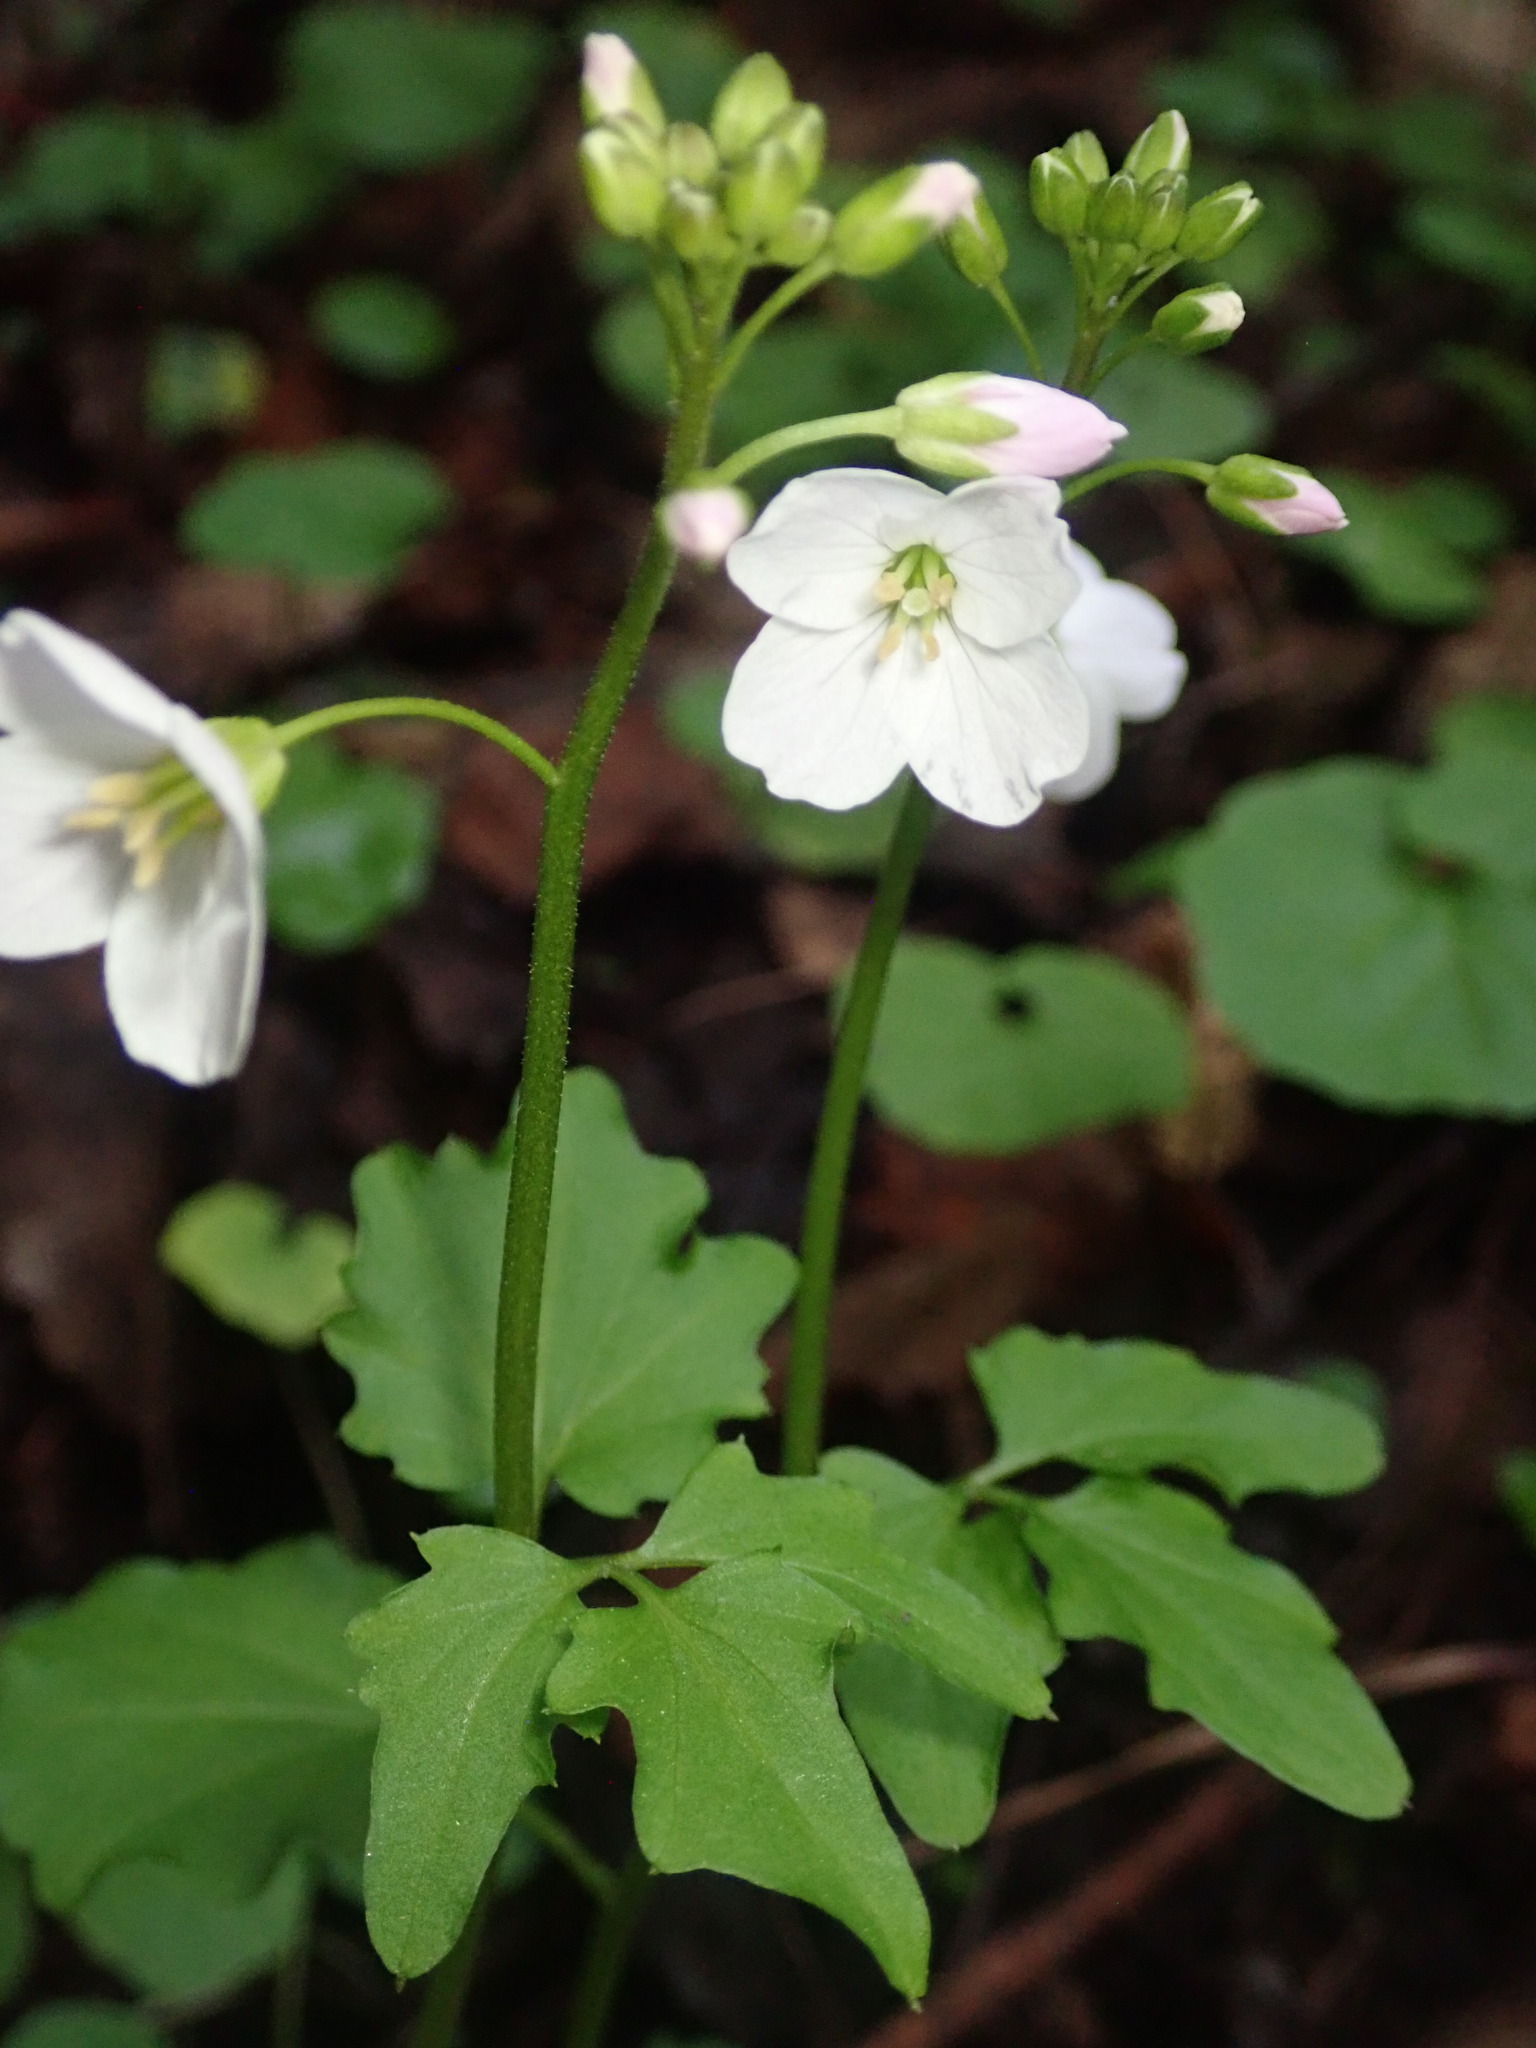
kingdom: Plantae
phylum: Tracheophyta
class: Magnoliopsida
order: Brassicales
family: Brassicaceae
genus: Cardamine
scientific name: Cardamine californica
